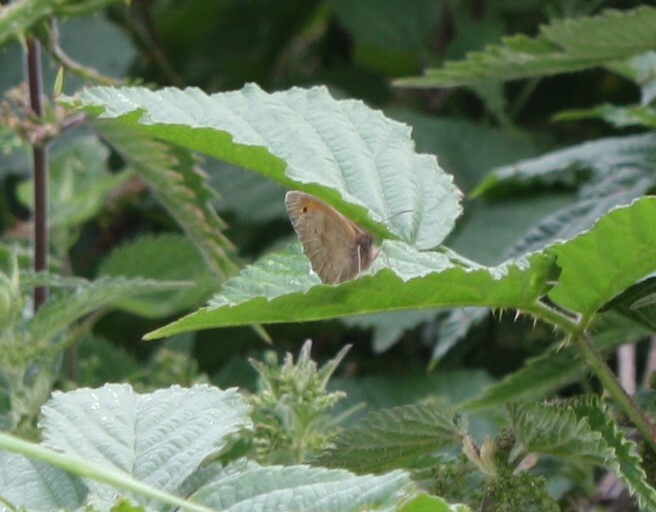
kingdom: Animalia
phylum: Arthropoda
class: Insecta
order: Lepidoptera
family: Nymphalidae
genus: Maniola
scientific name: Maniola jurtina
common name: Meadow brown
